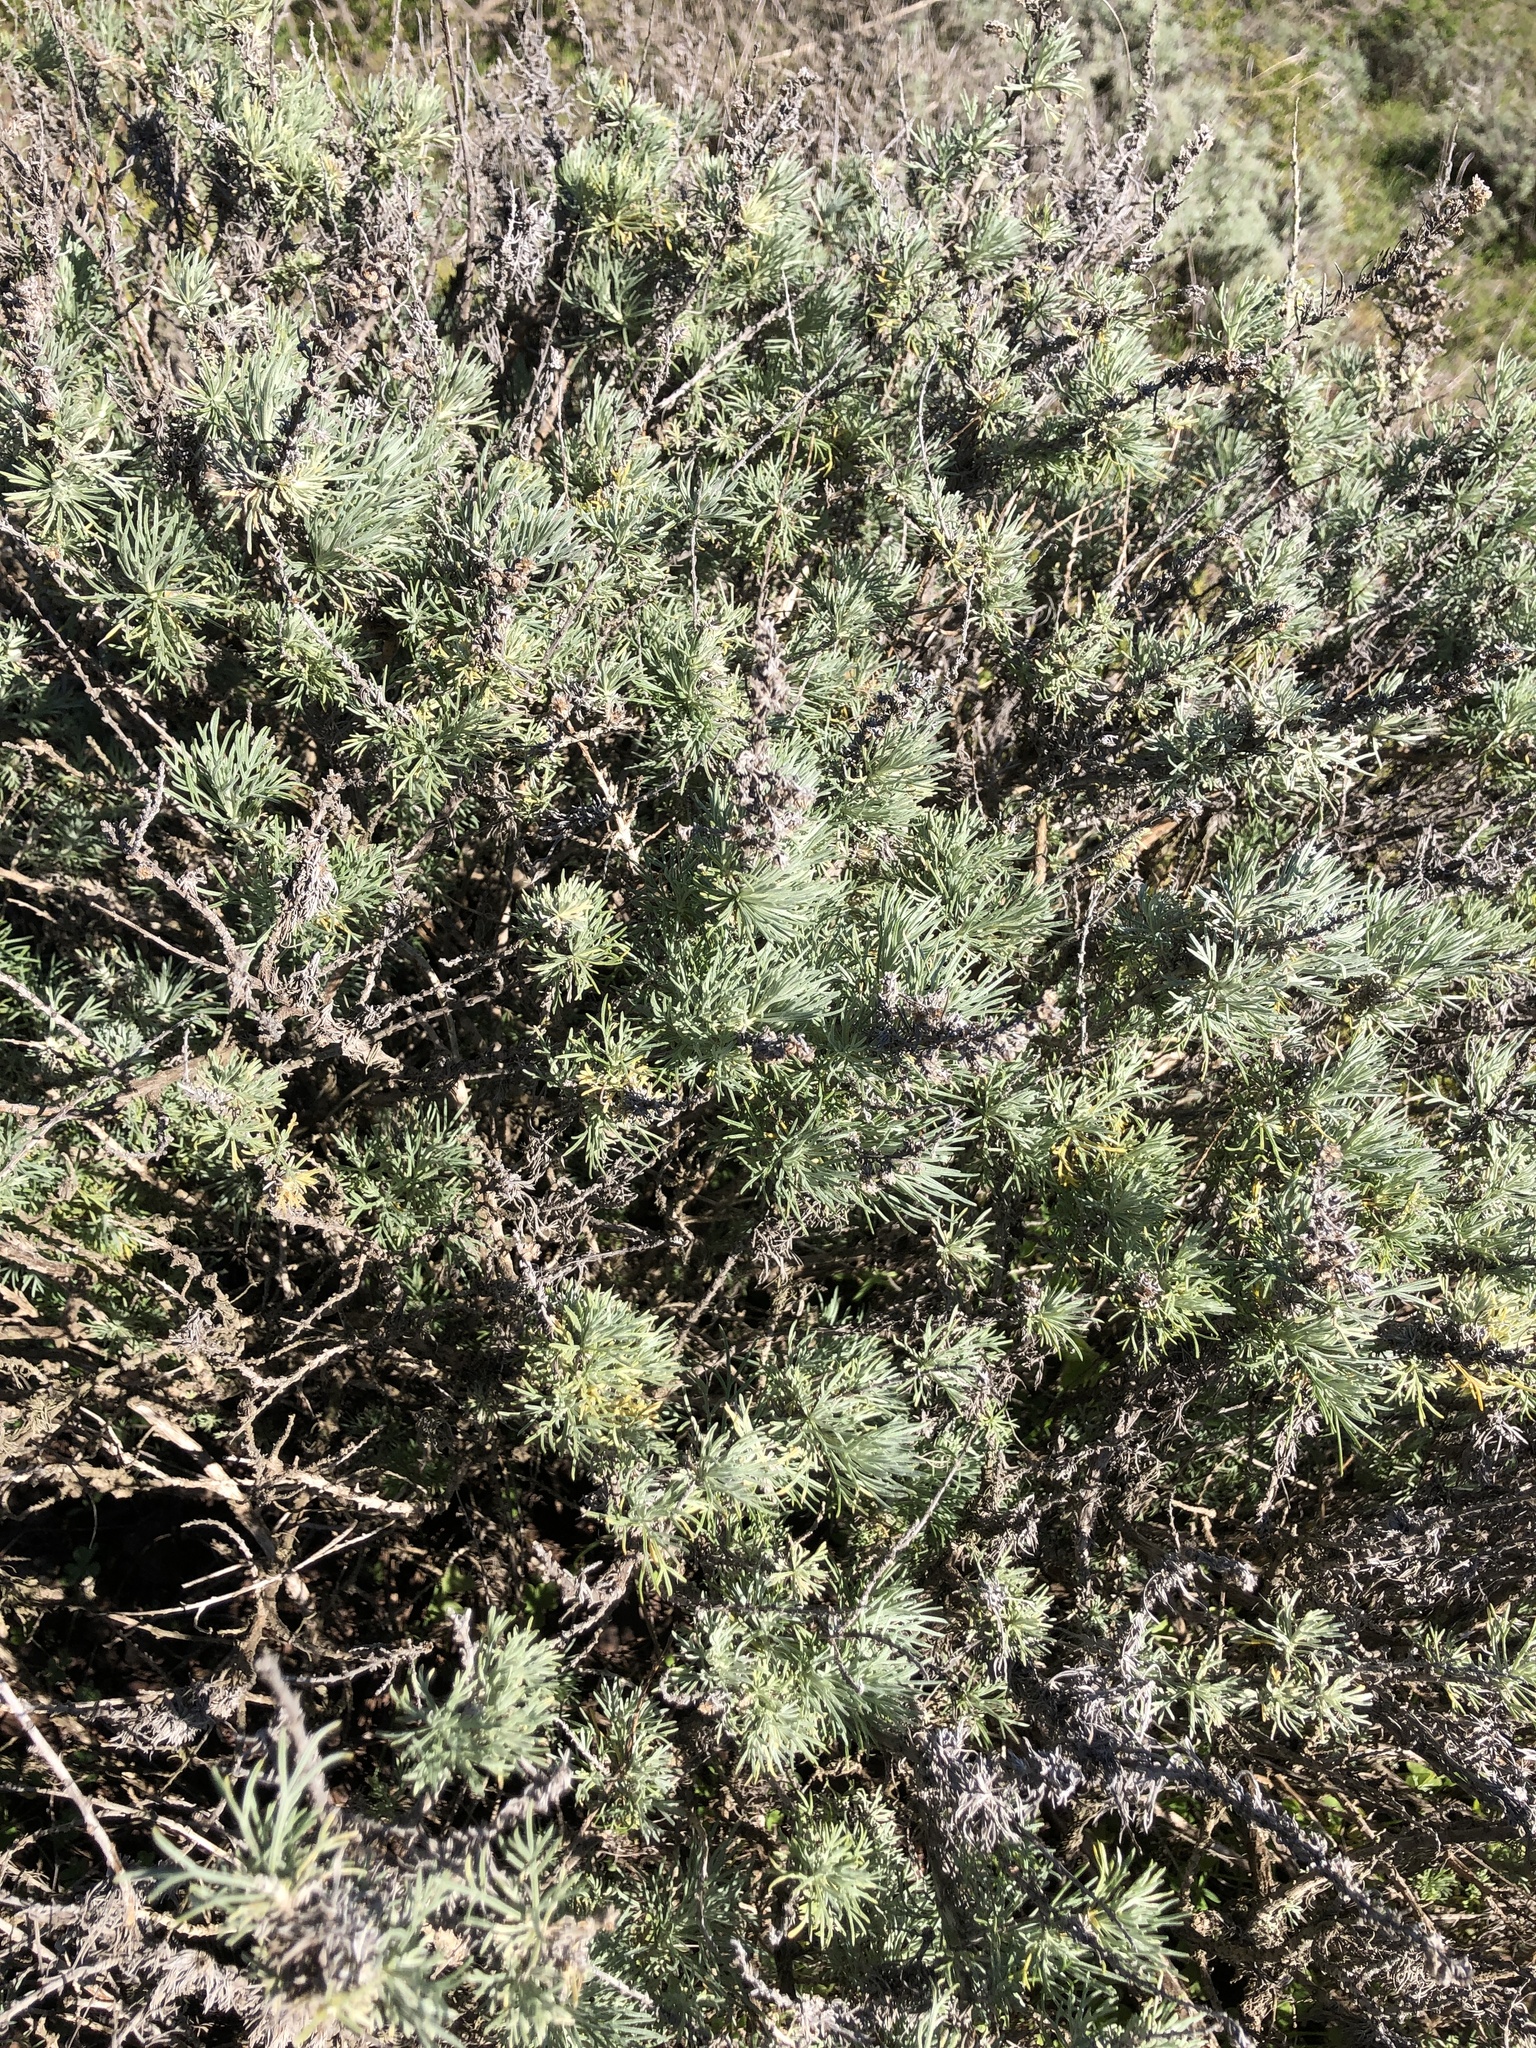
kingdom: Plantae
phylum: Tracheophyta
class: Magnoliopsida
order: Asterales
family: Asteraceae
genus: Artemisia
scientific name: Artemisia californica
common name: California sagebrush
